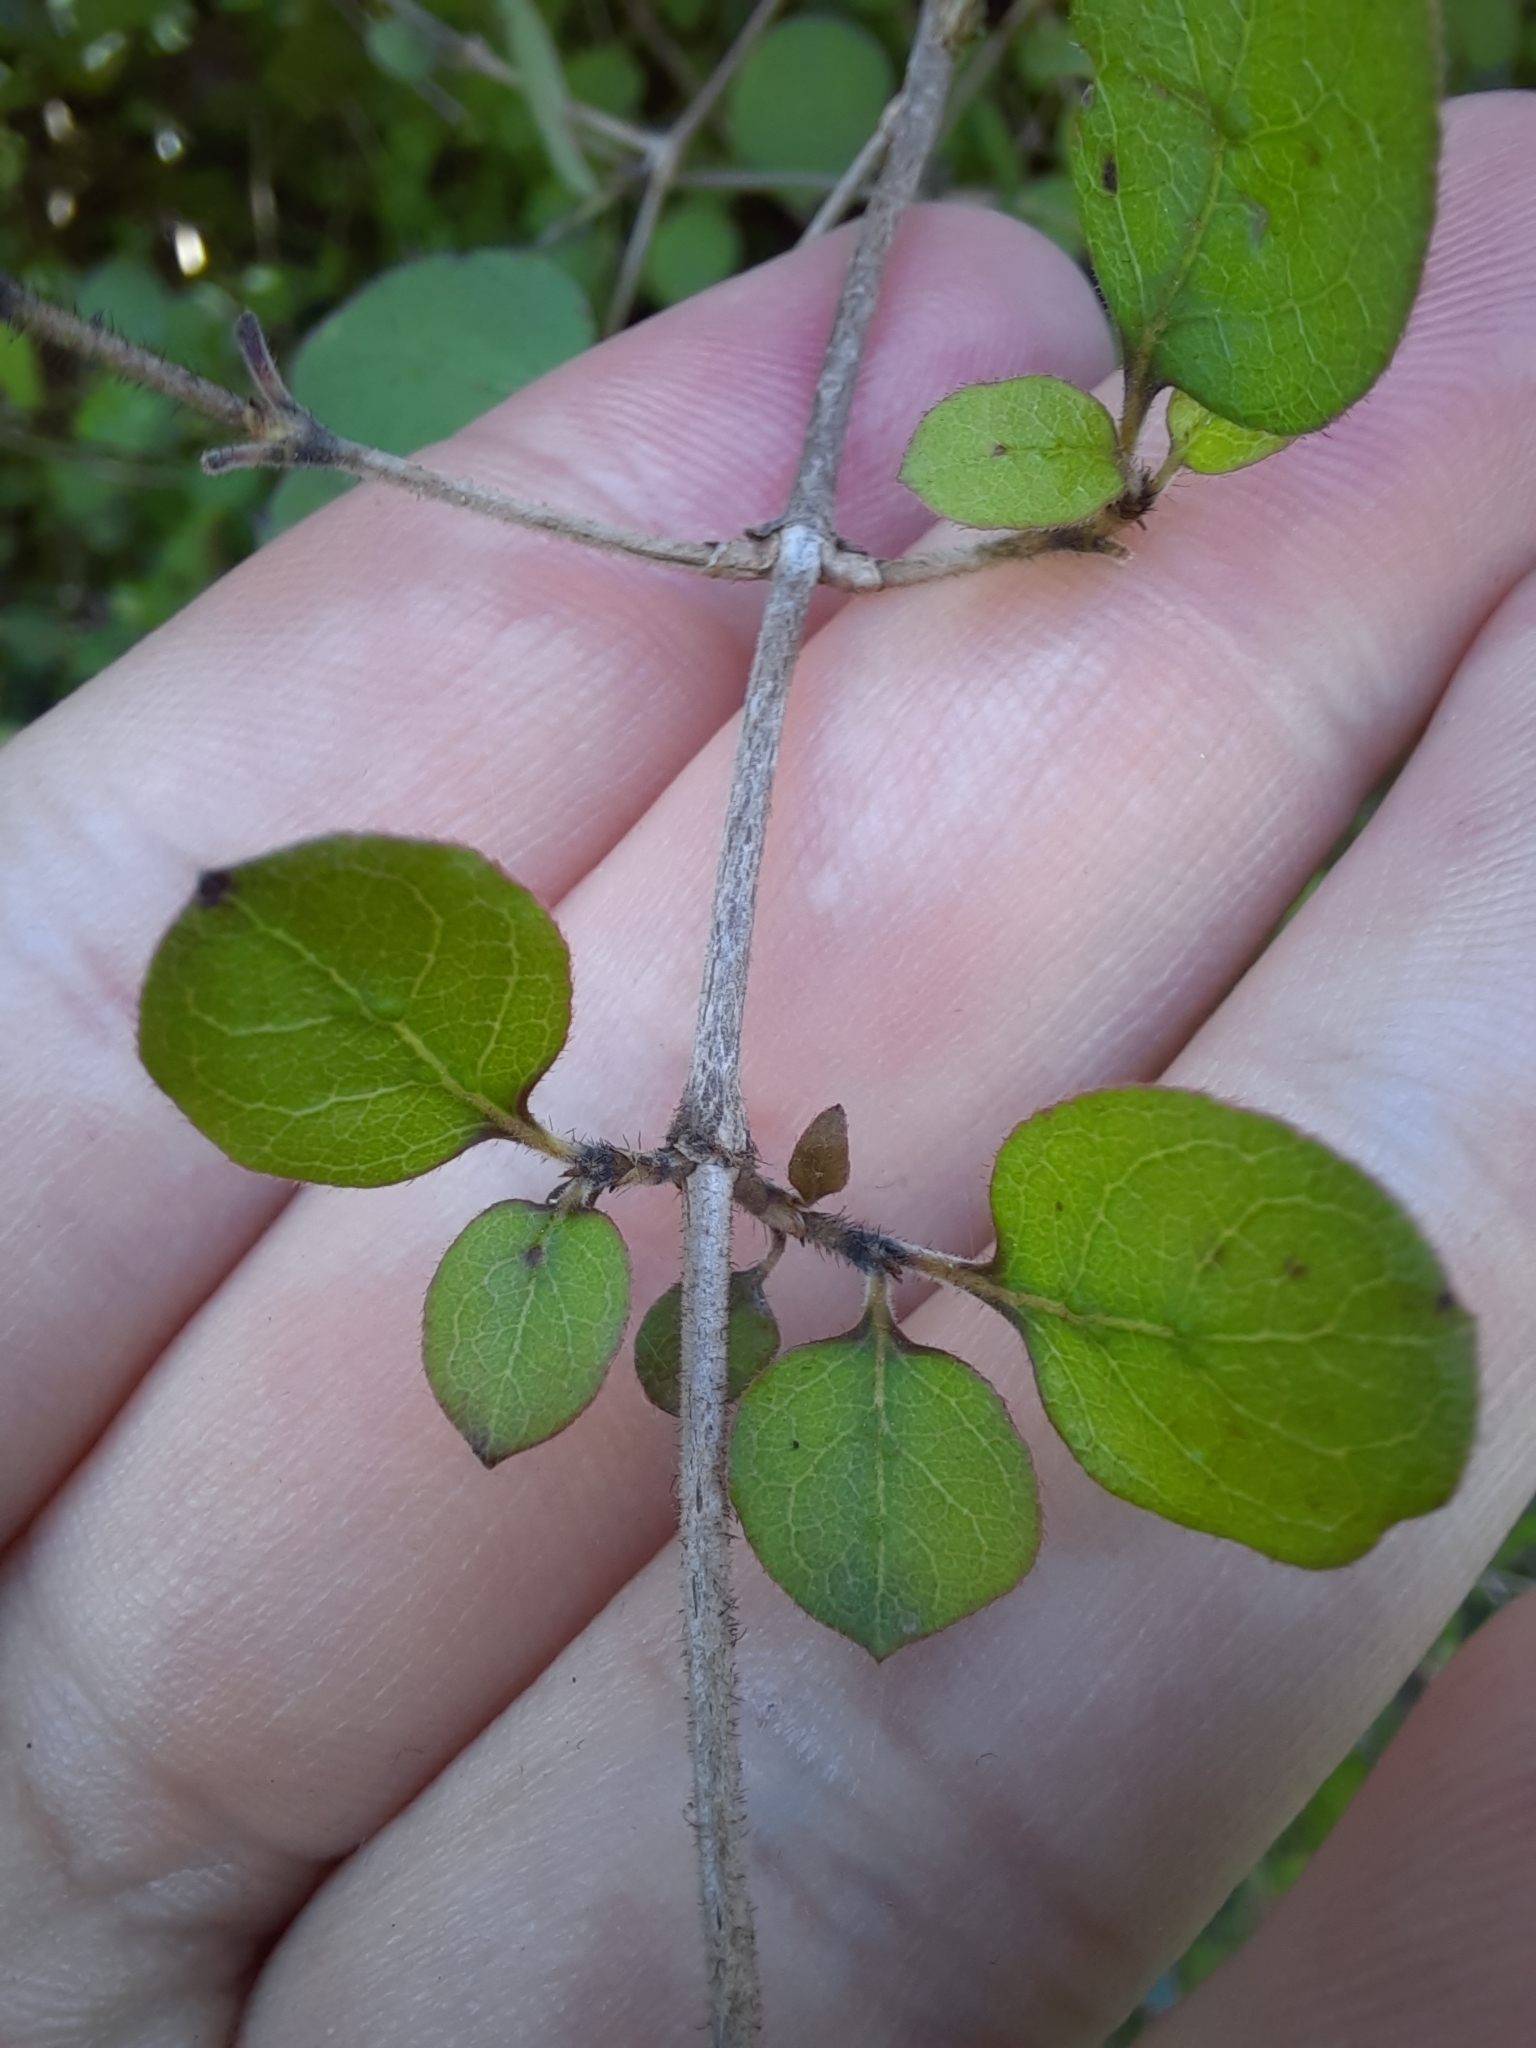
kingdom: Plantae
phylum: Tracheophyta
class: Magnoliopsida
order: Gentianales
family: Rubiaceae
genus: Coprosma
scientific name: Coprosma rotundifolia
